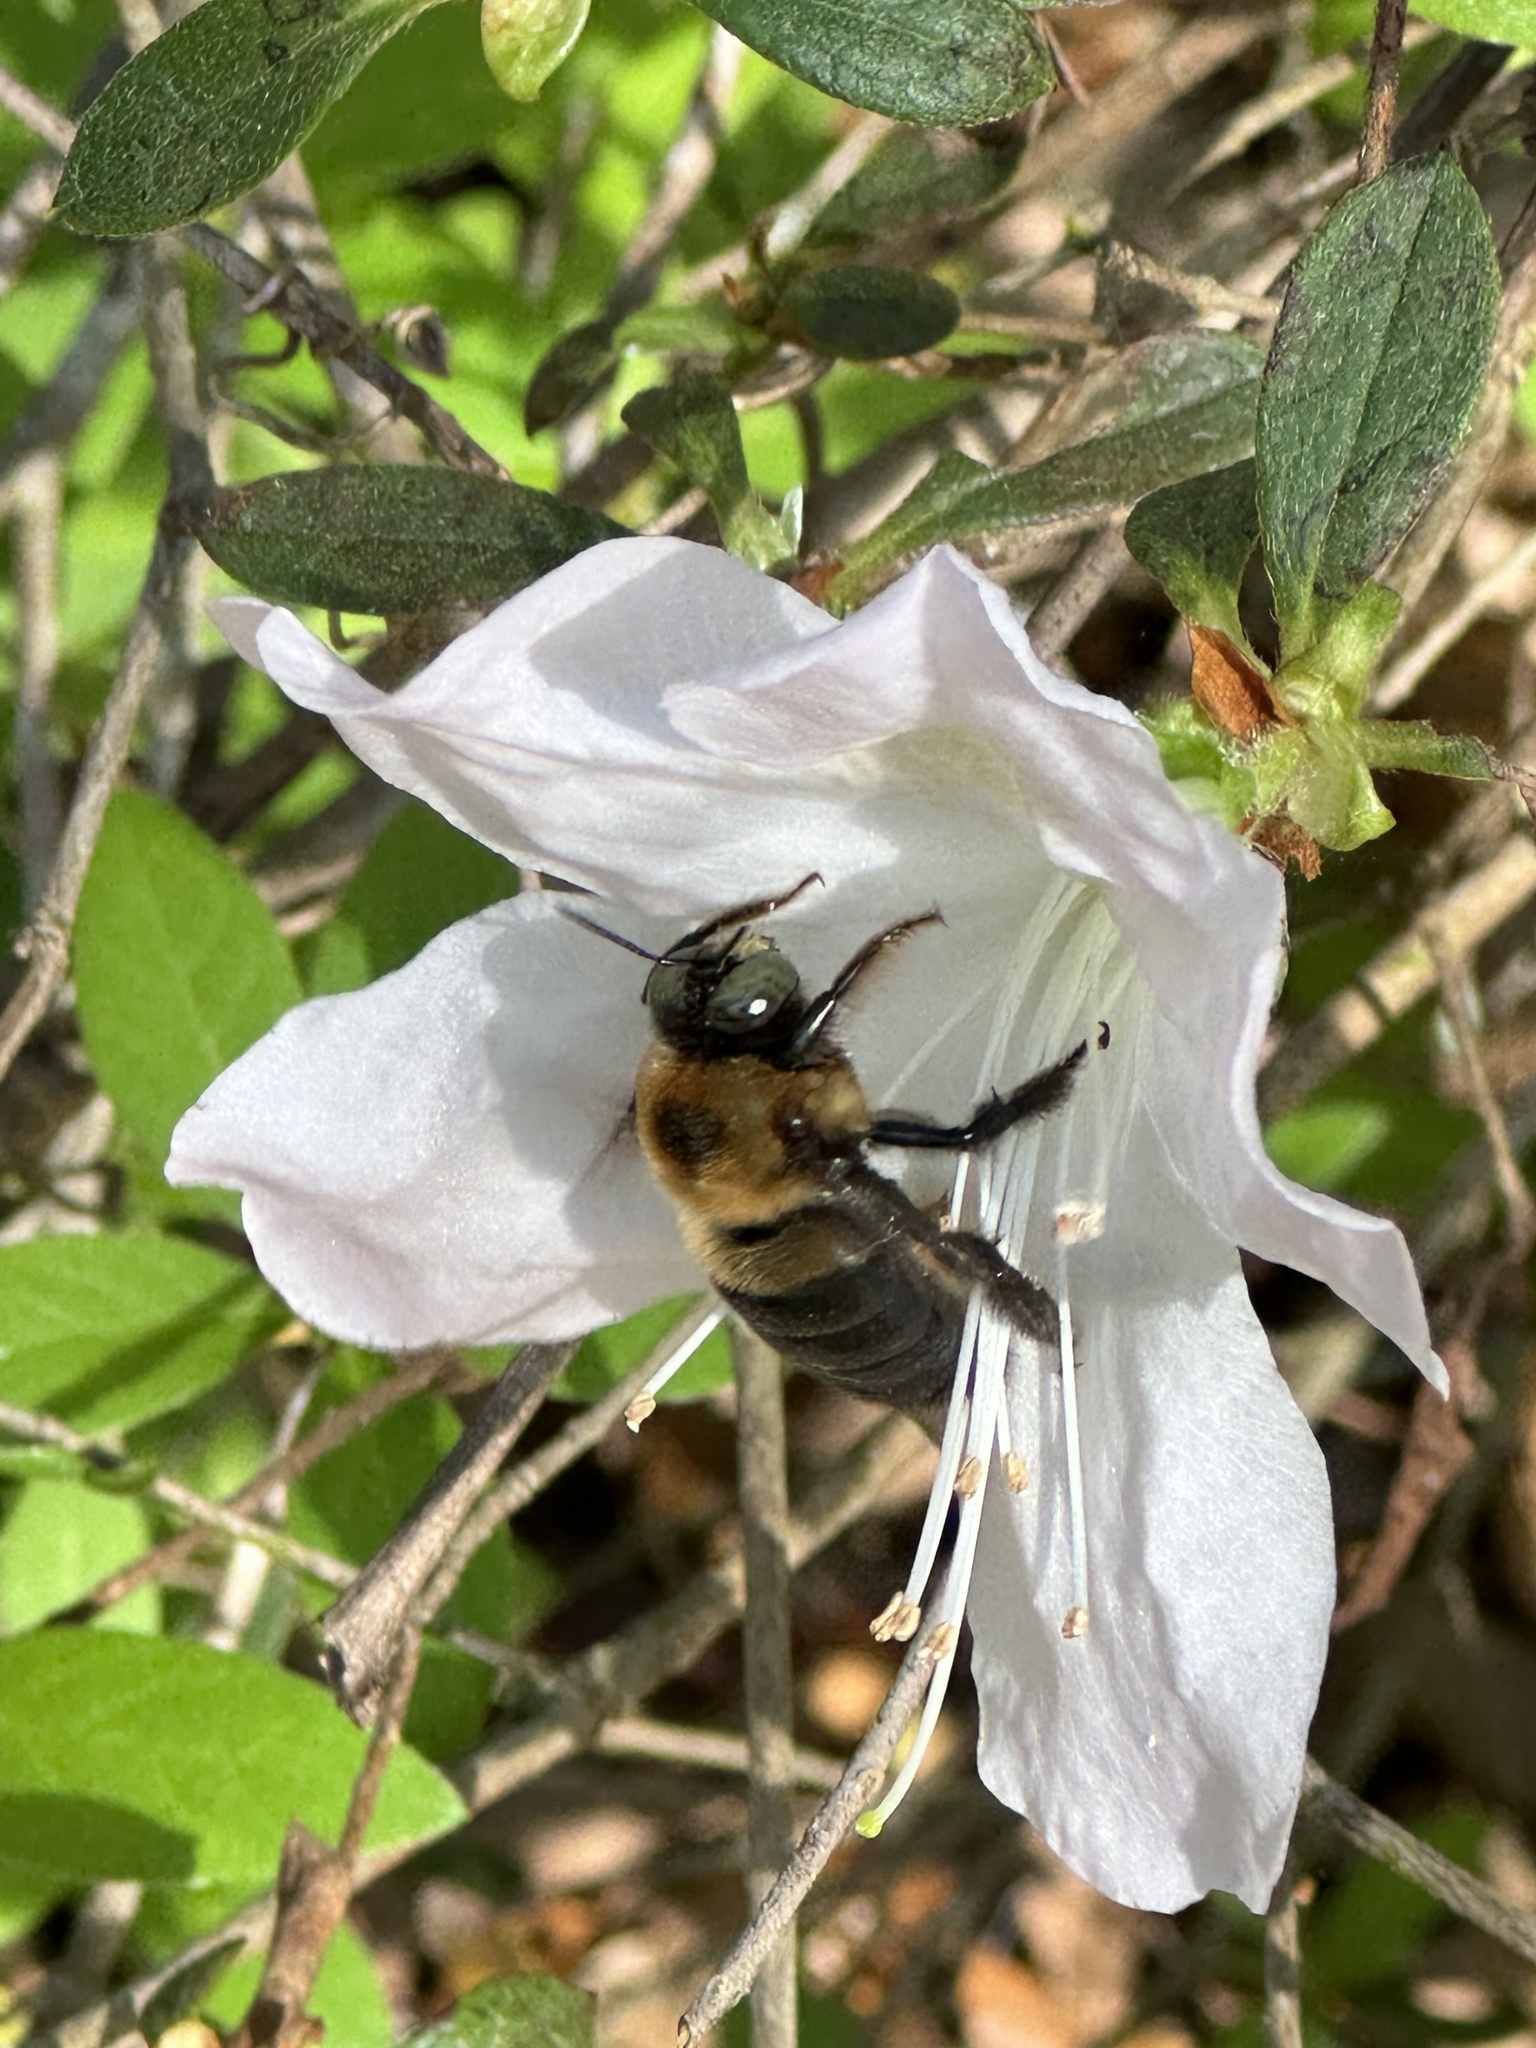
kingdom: Animalia
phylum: Arthropoda
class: Insecta
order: Hymenoptera
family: Apidae
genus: Xylocopa
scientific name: Xylocopa virginica
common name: Carpenter bee
